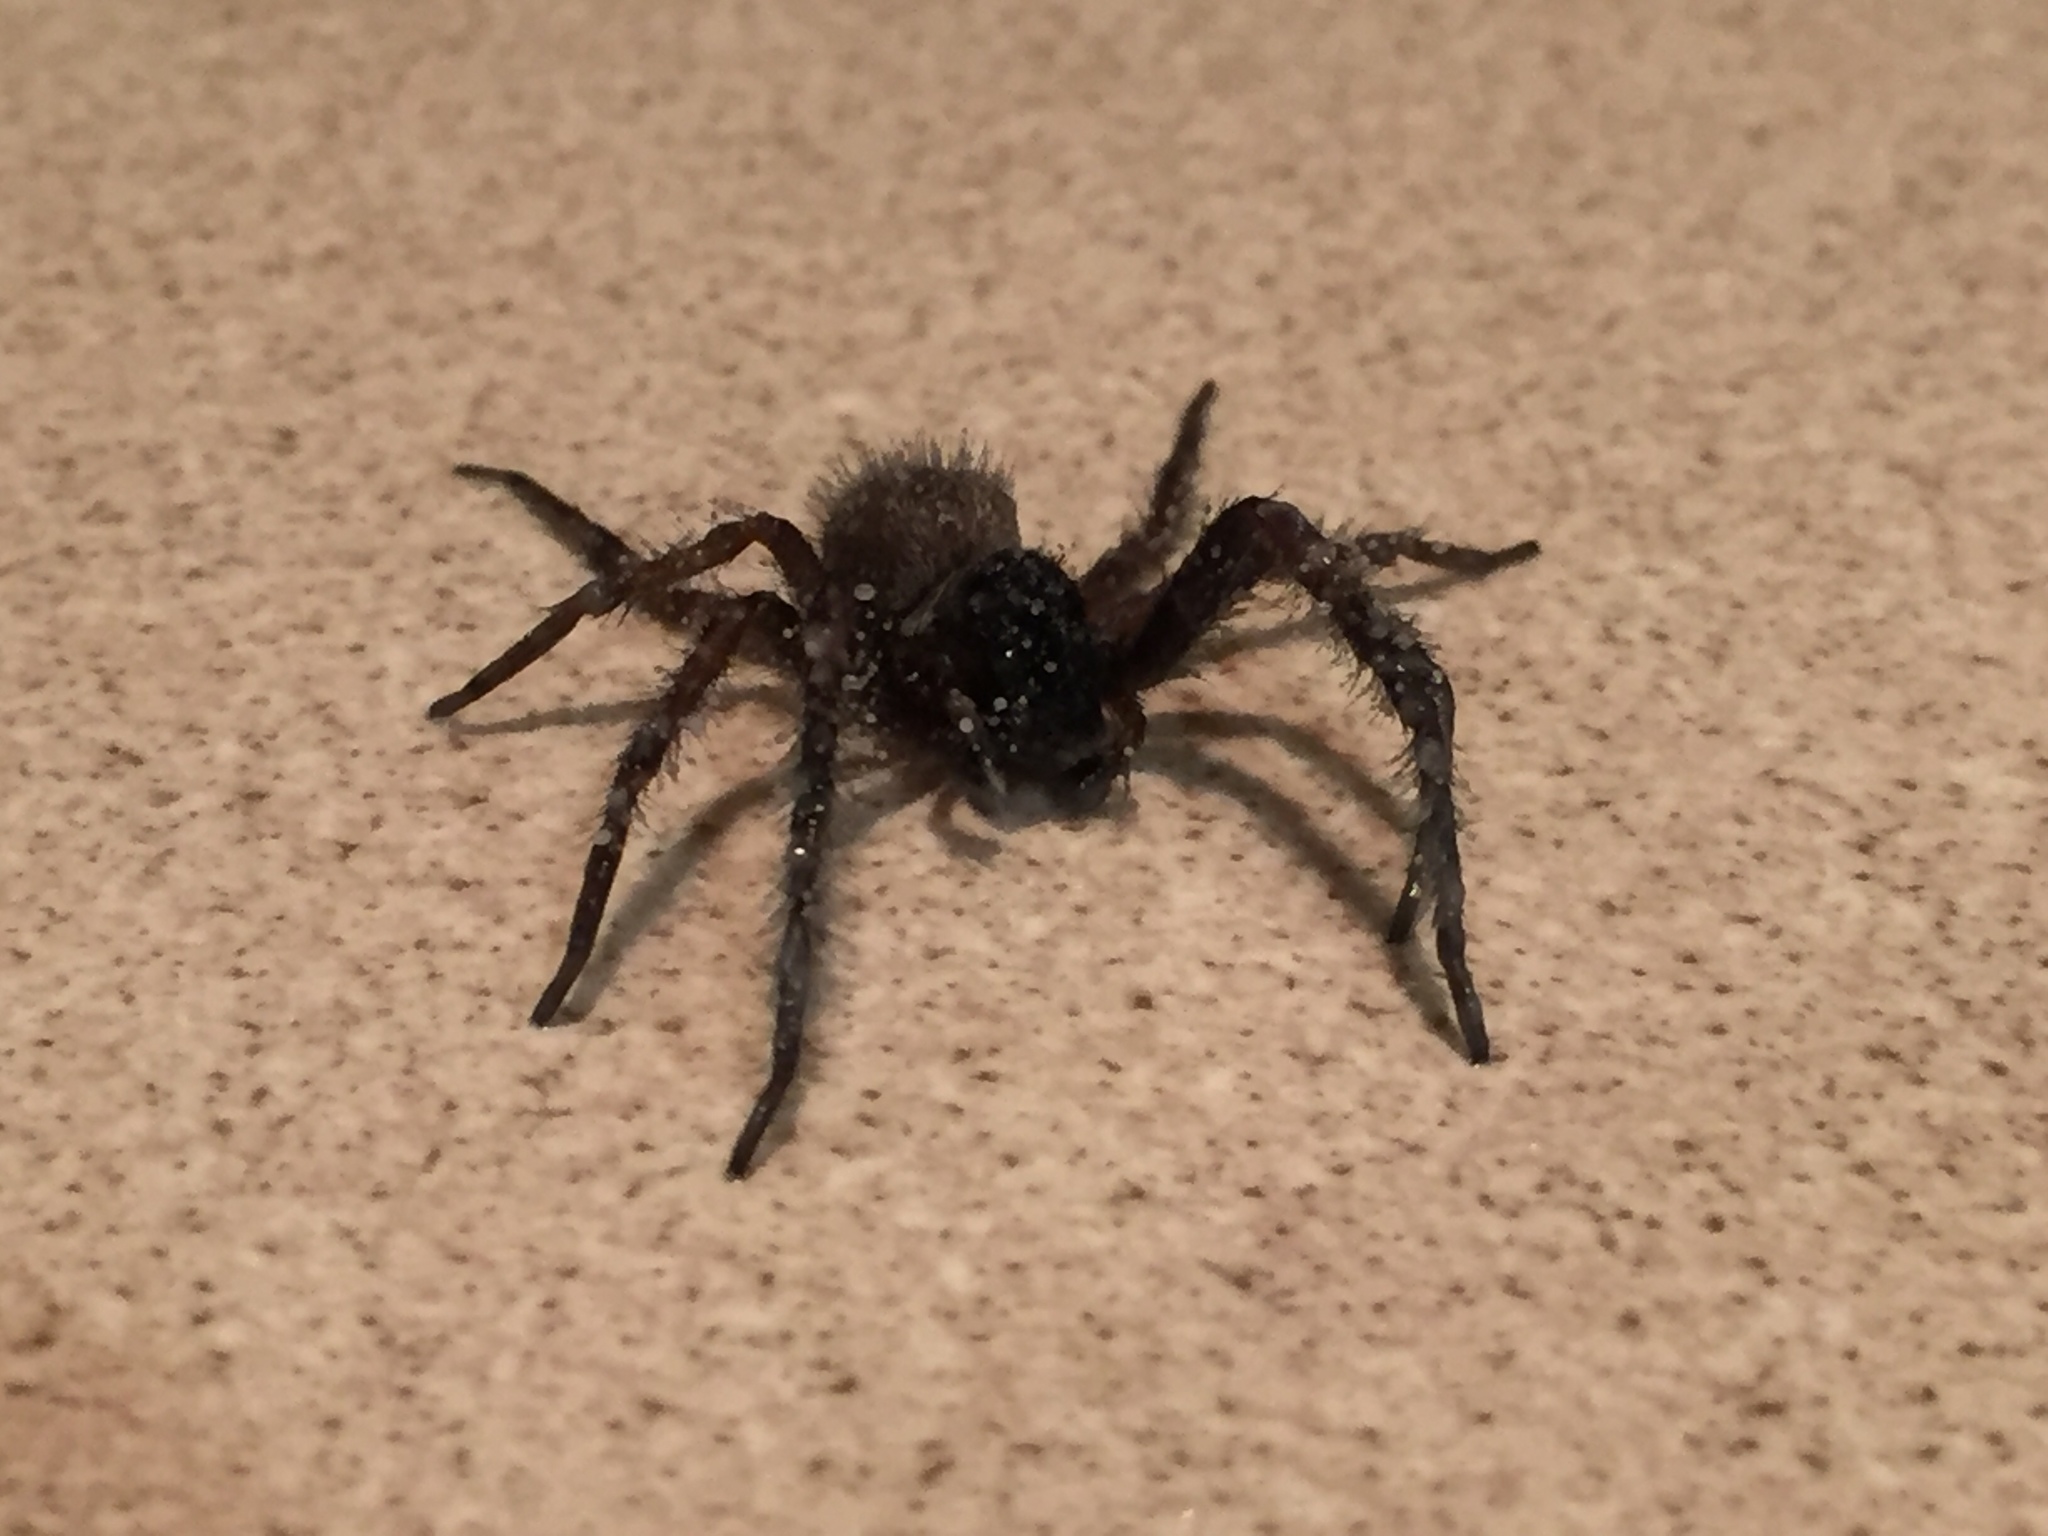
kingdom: Animalia
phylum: Arthropoda
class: Arachnida
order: Araneae
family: Desidae
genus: Badumna
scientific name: Badumna longinqua
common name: Gray house spider
